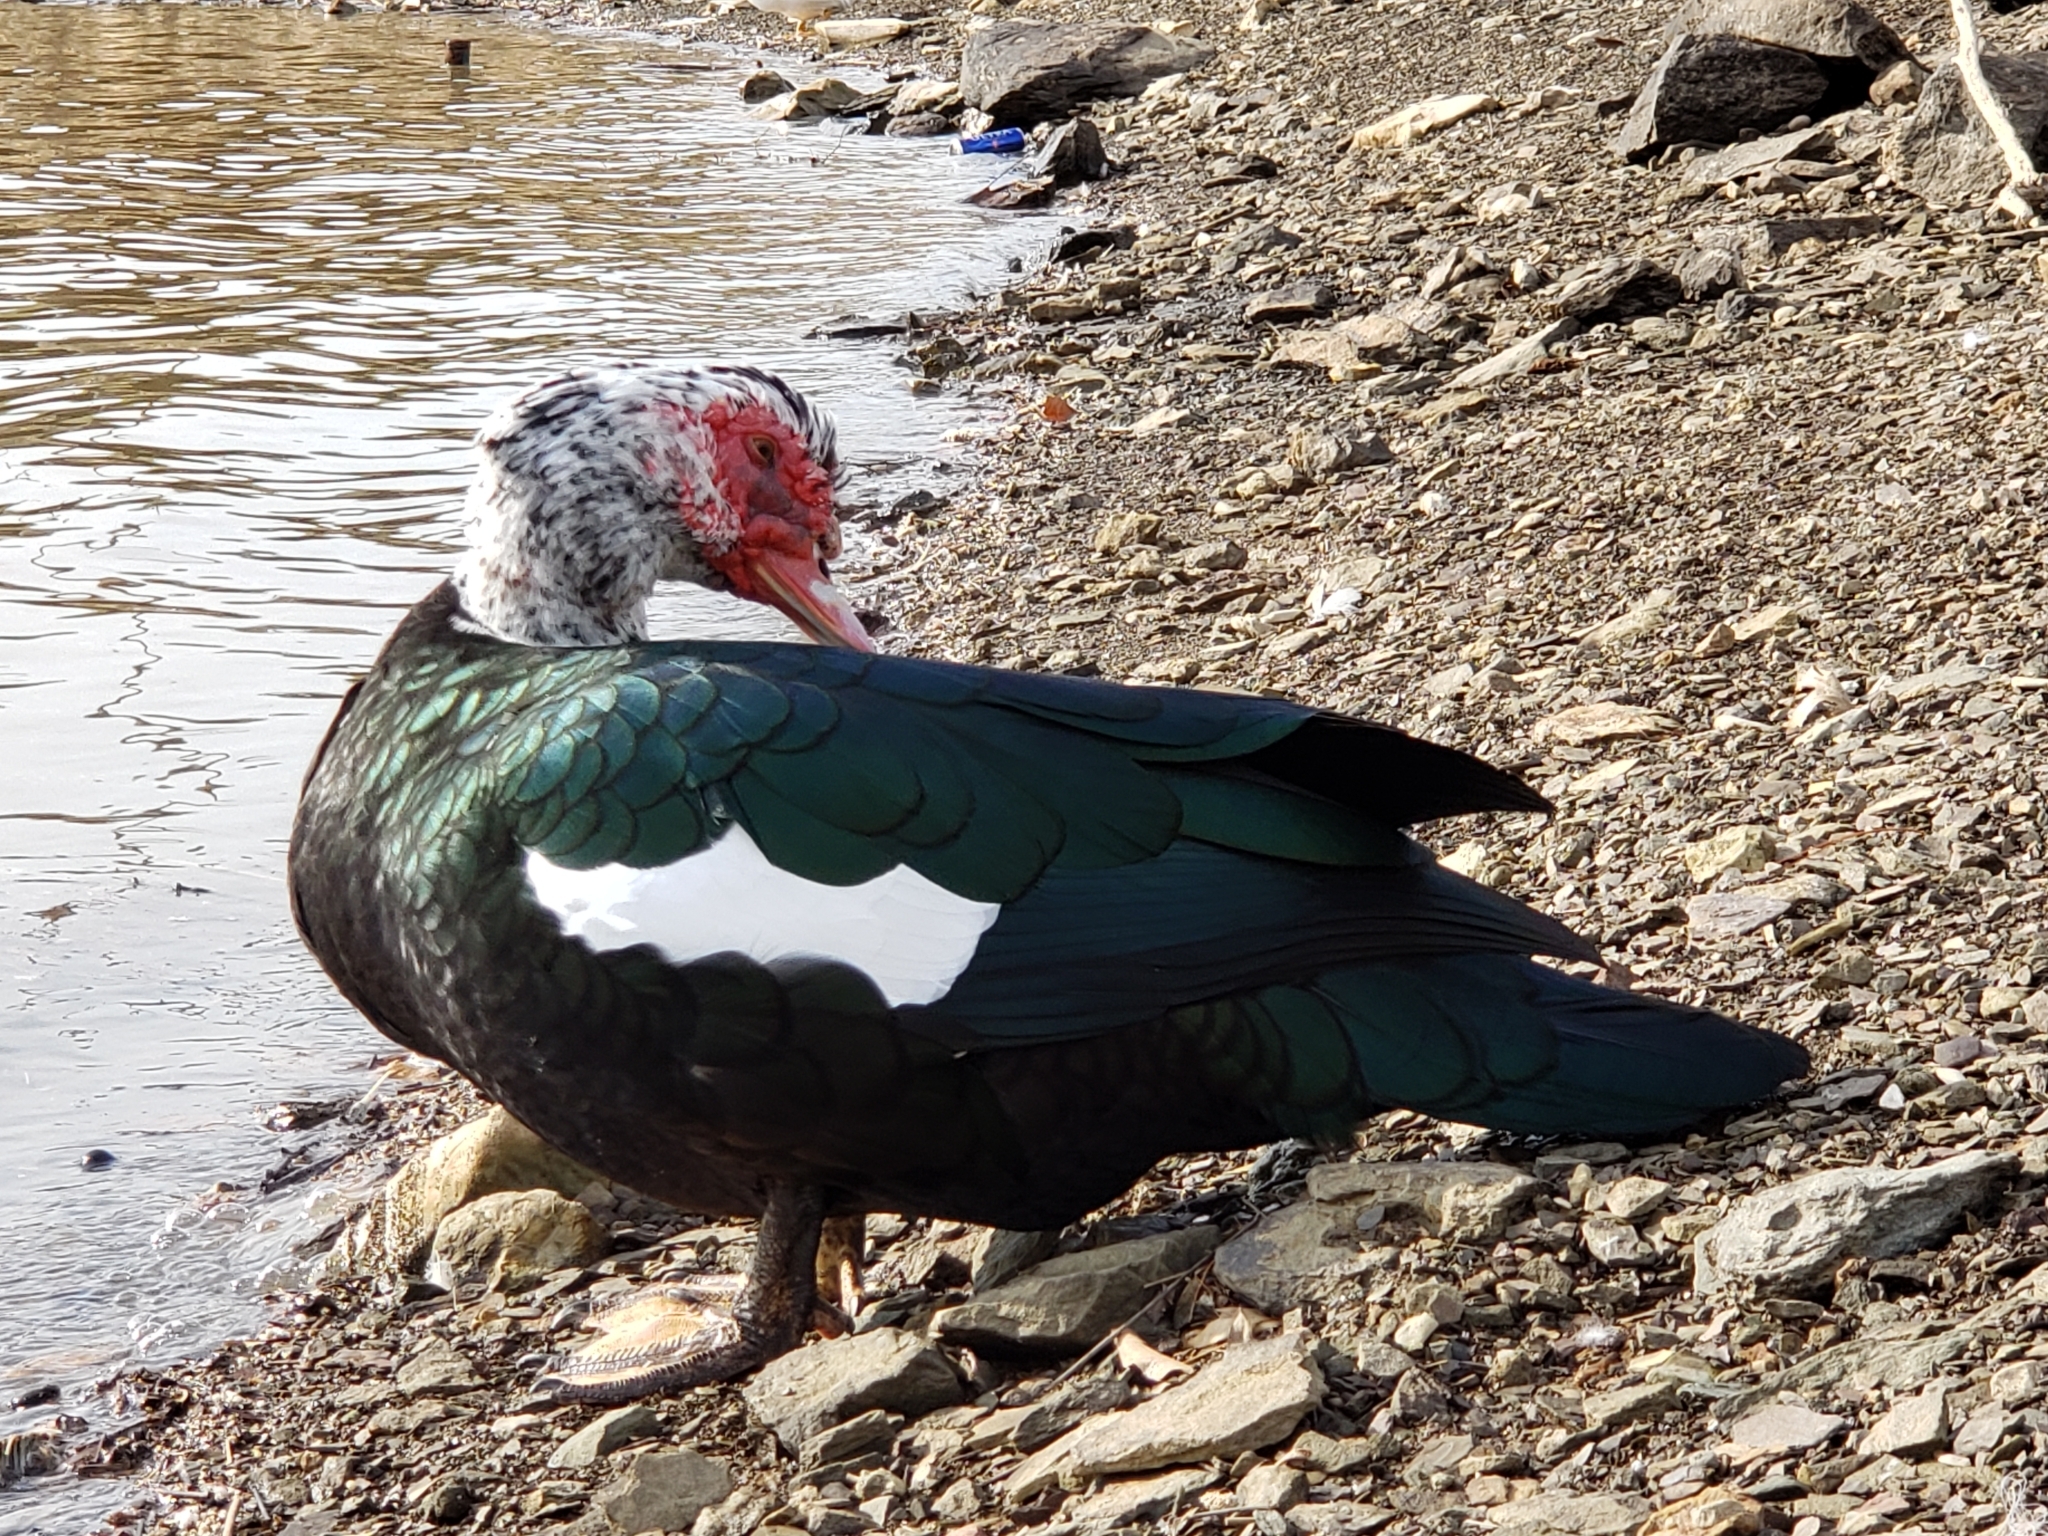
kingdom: Animalia
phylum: Chordata
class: Aves
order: Anseriformes
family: Anatidae
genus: Cairina
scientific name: Cairina moschata
